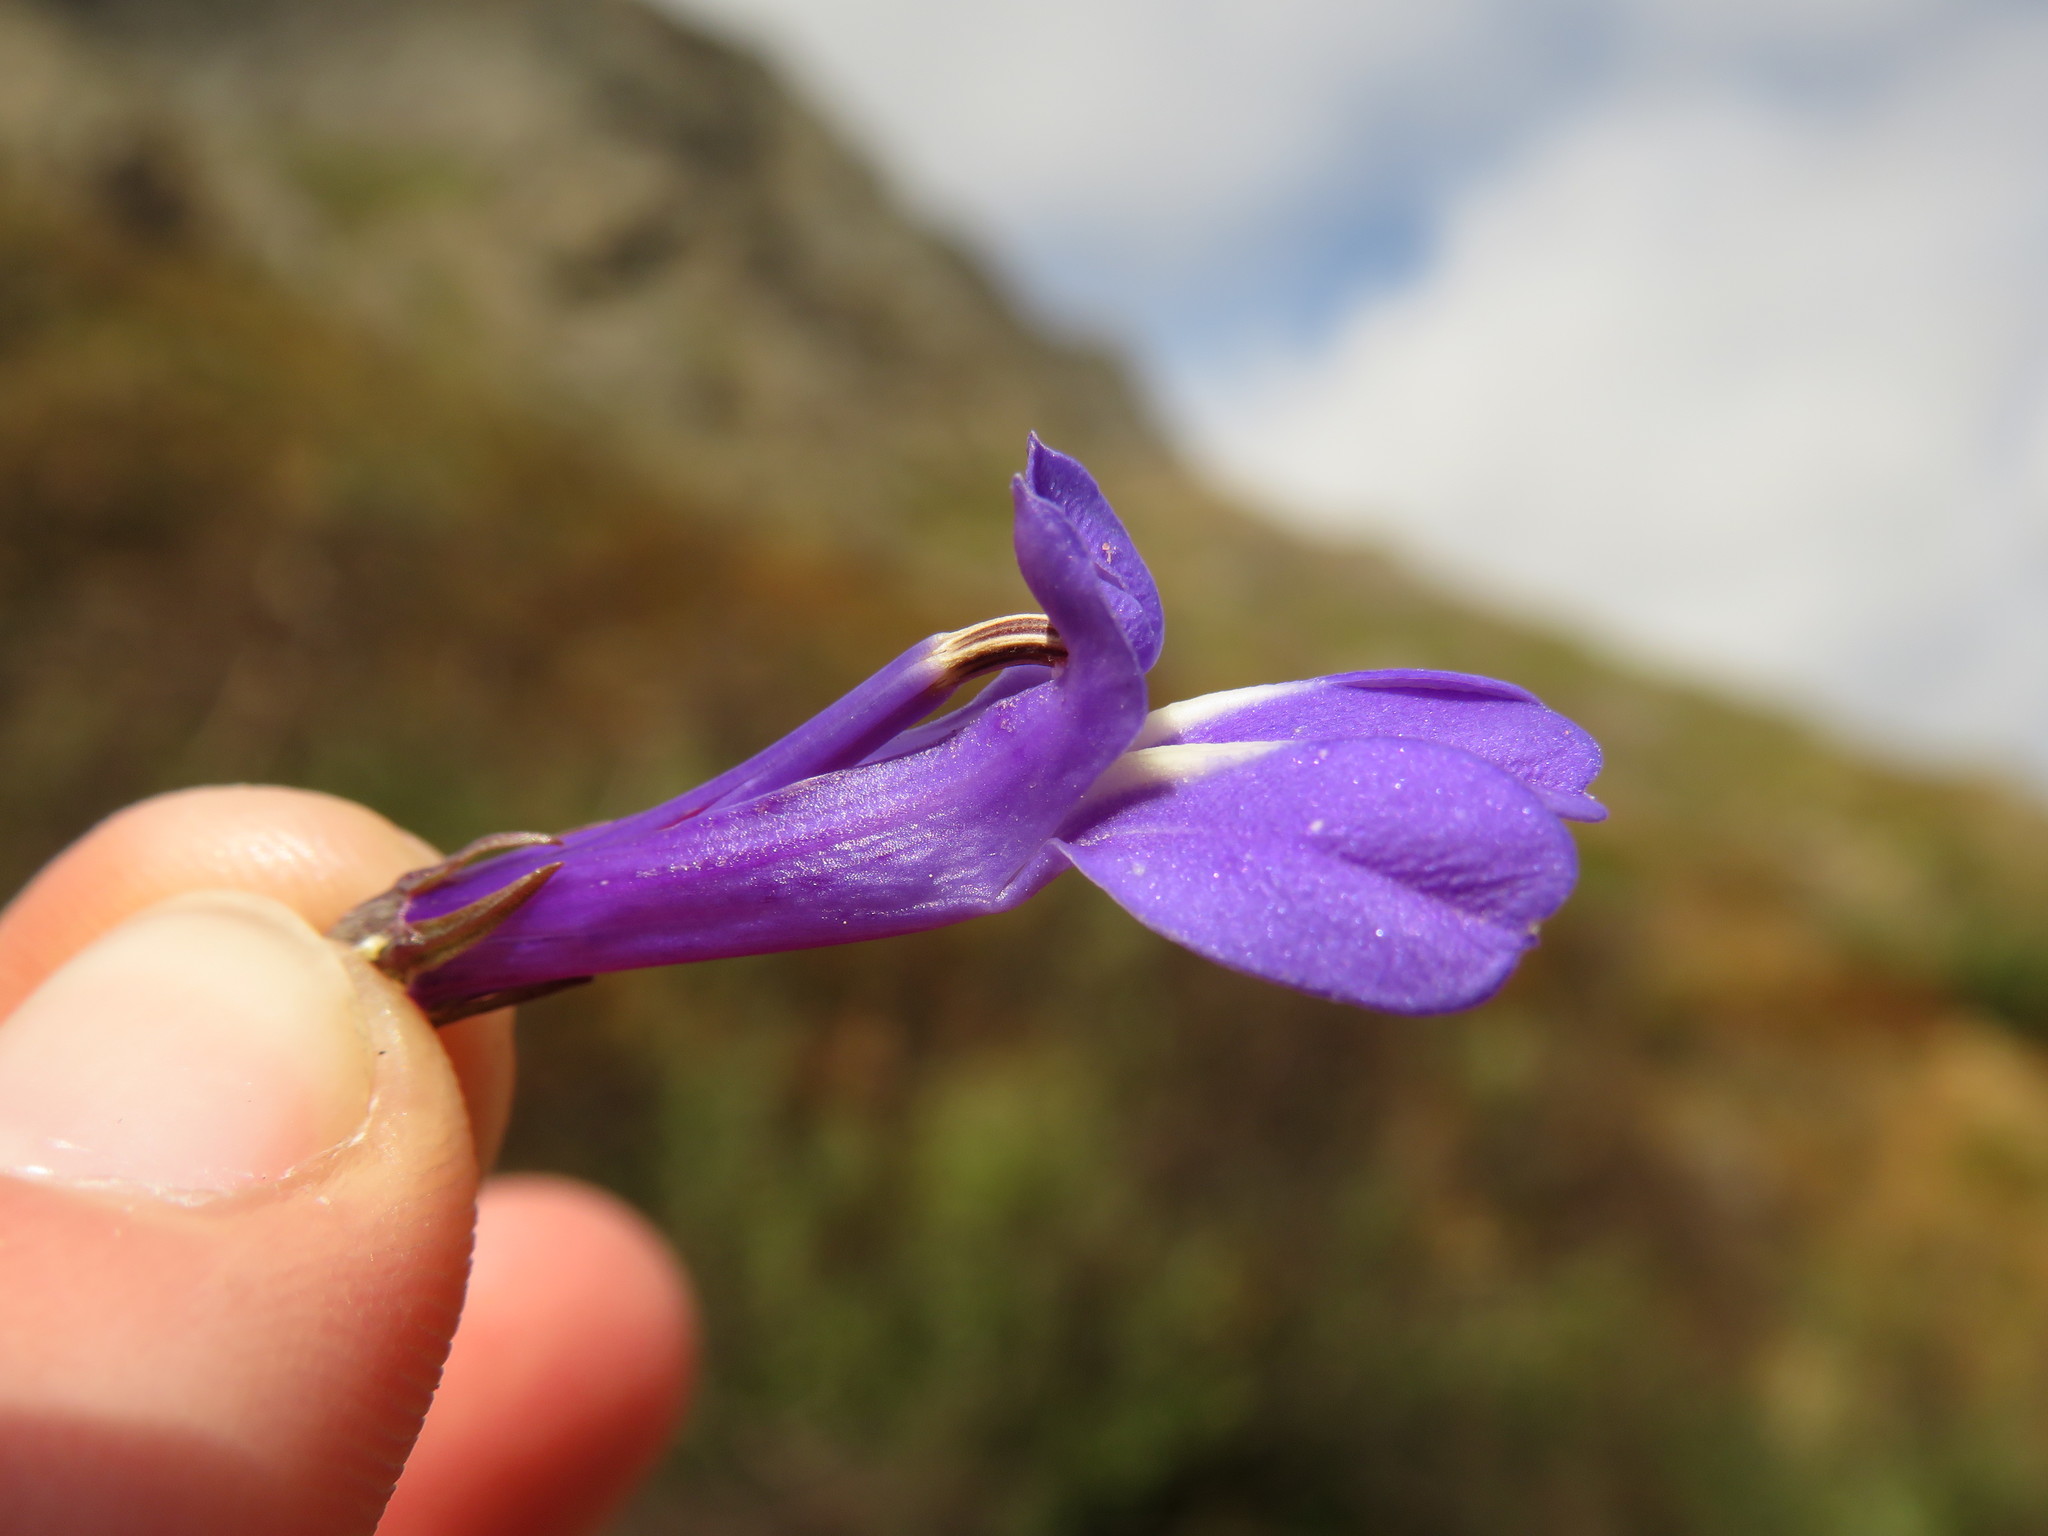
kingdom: Plantae
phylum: Tracheophyta
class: Magnoliopsida
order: Asterales
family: Campanulaceae
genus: Lobelia
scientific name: Lobelia coronopifolia
